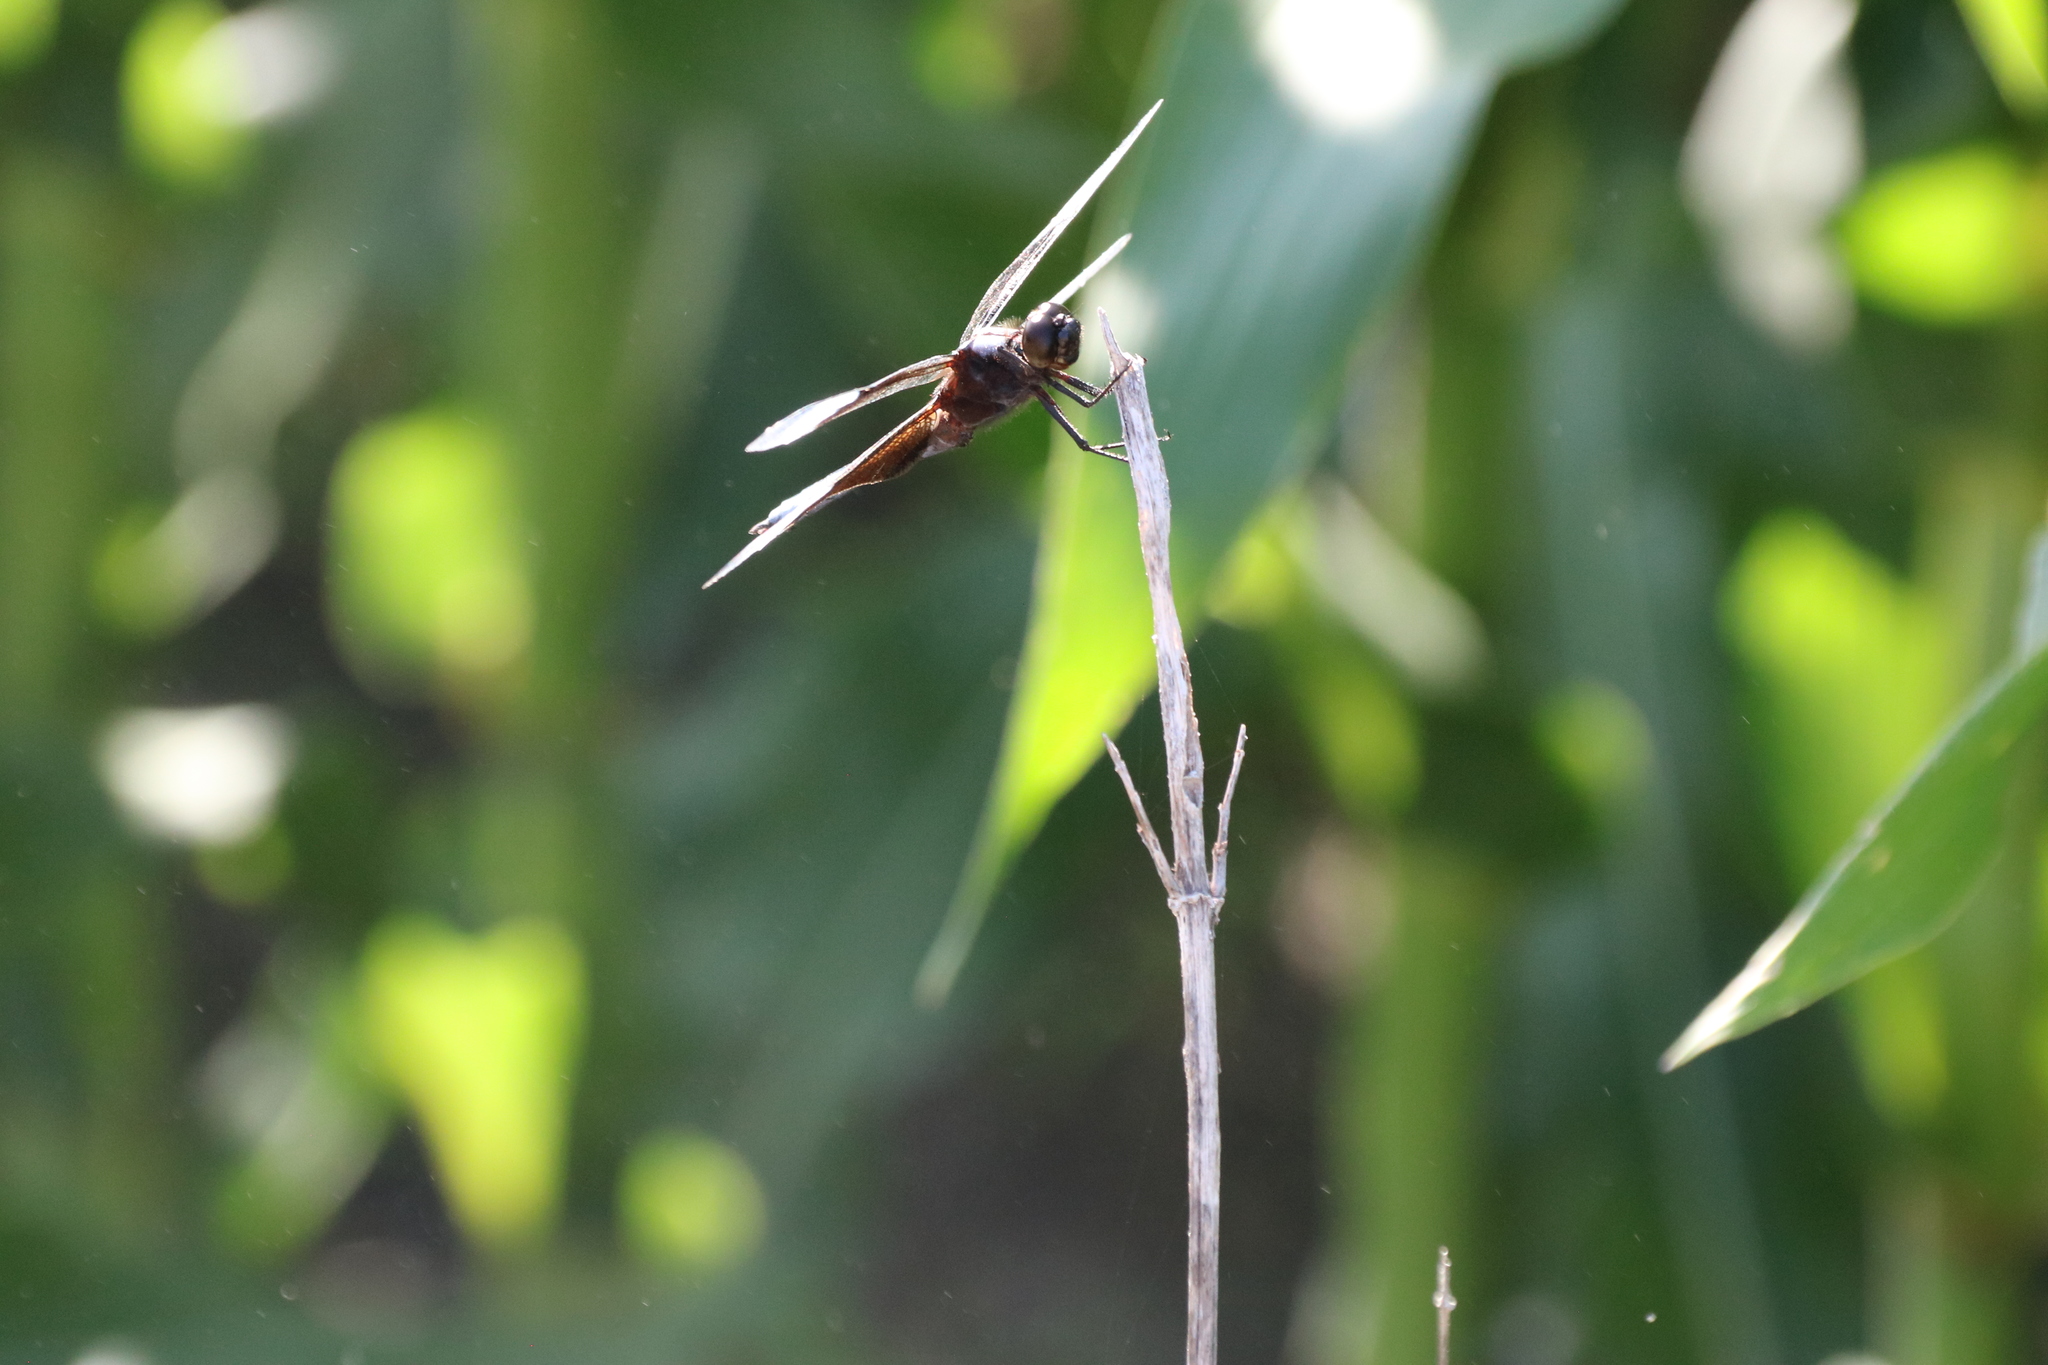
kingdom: Animalia
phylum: Arthropoda
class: Insecta
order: Odonata
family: Libellulidae
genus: Libellula
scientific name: Libellula luctuosa
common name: Widow skimmer
